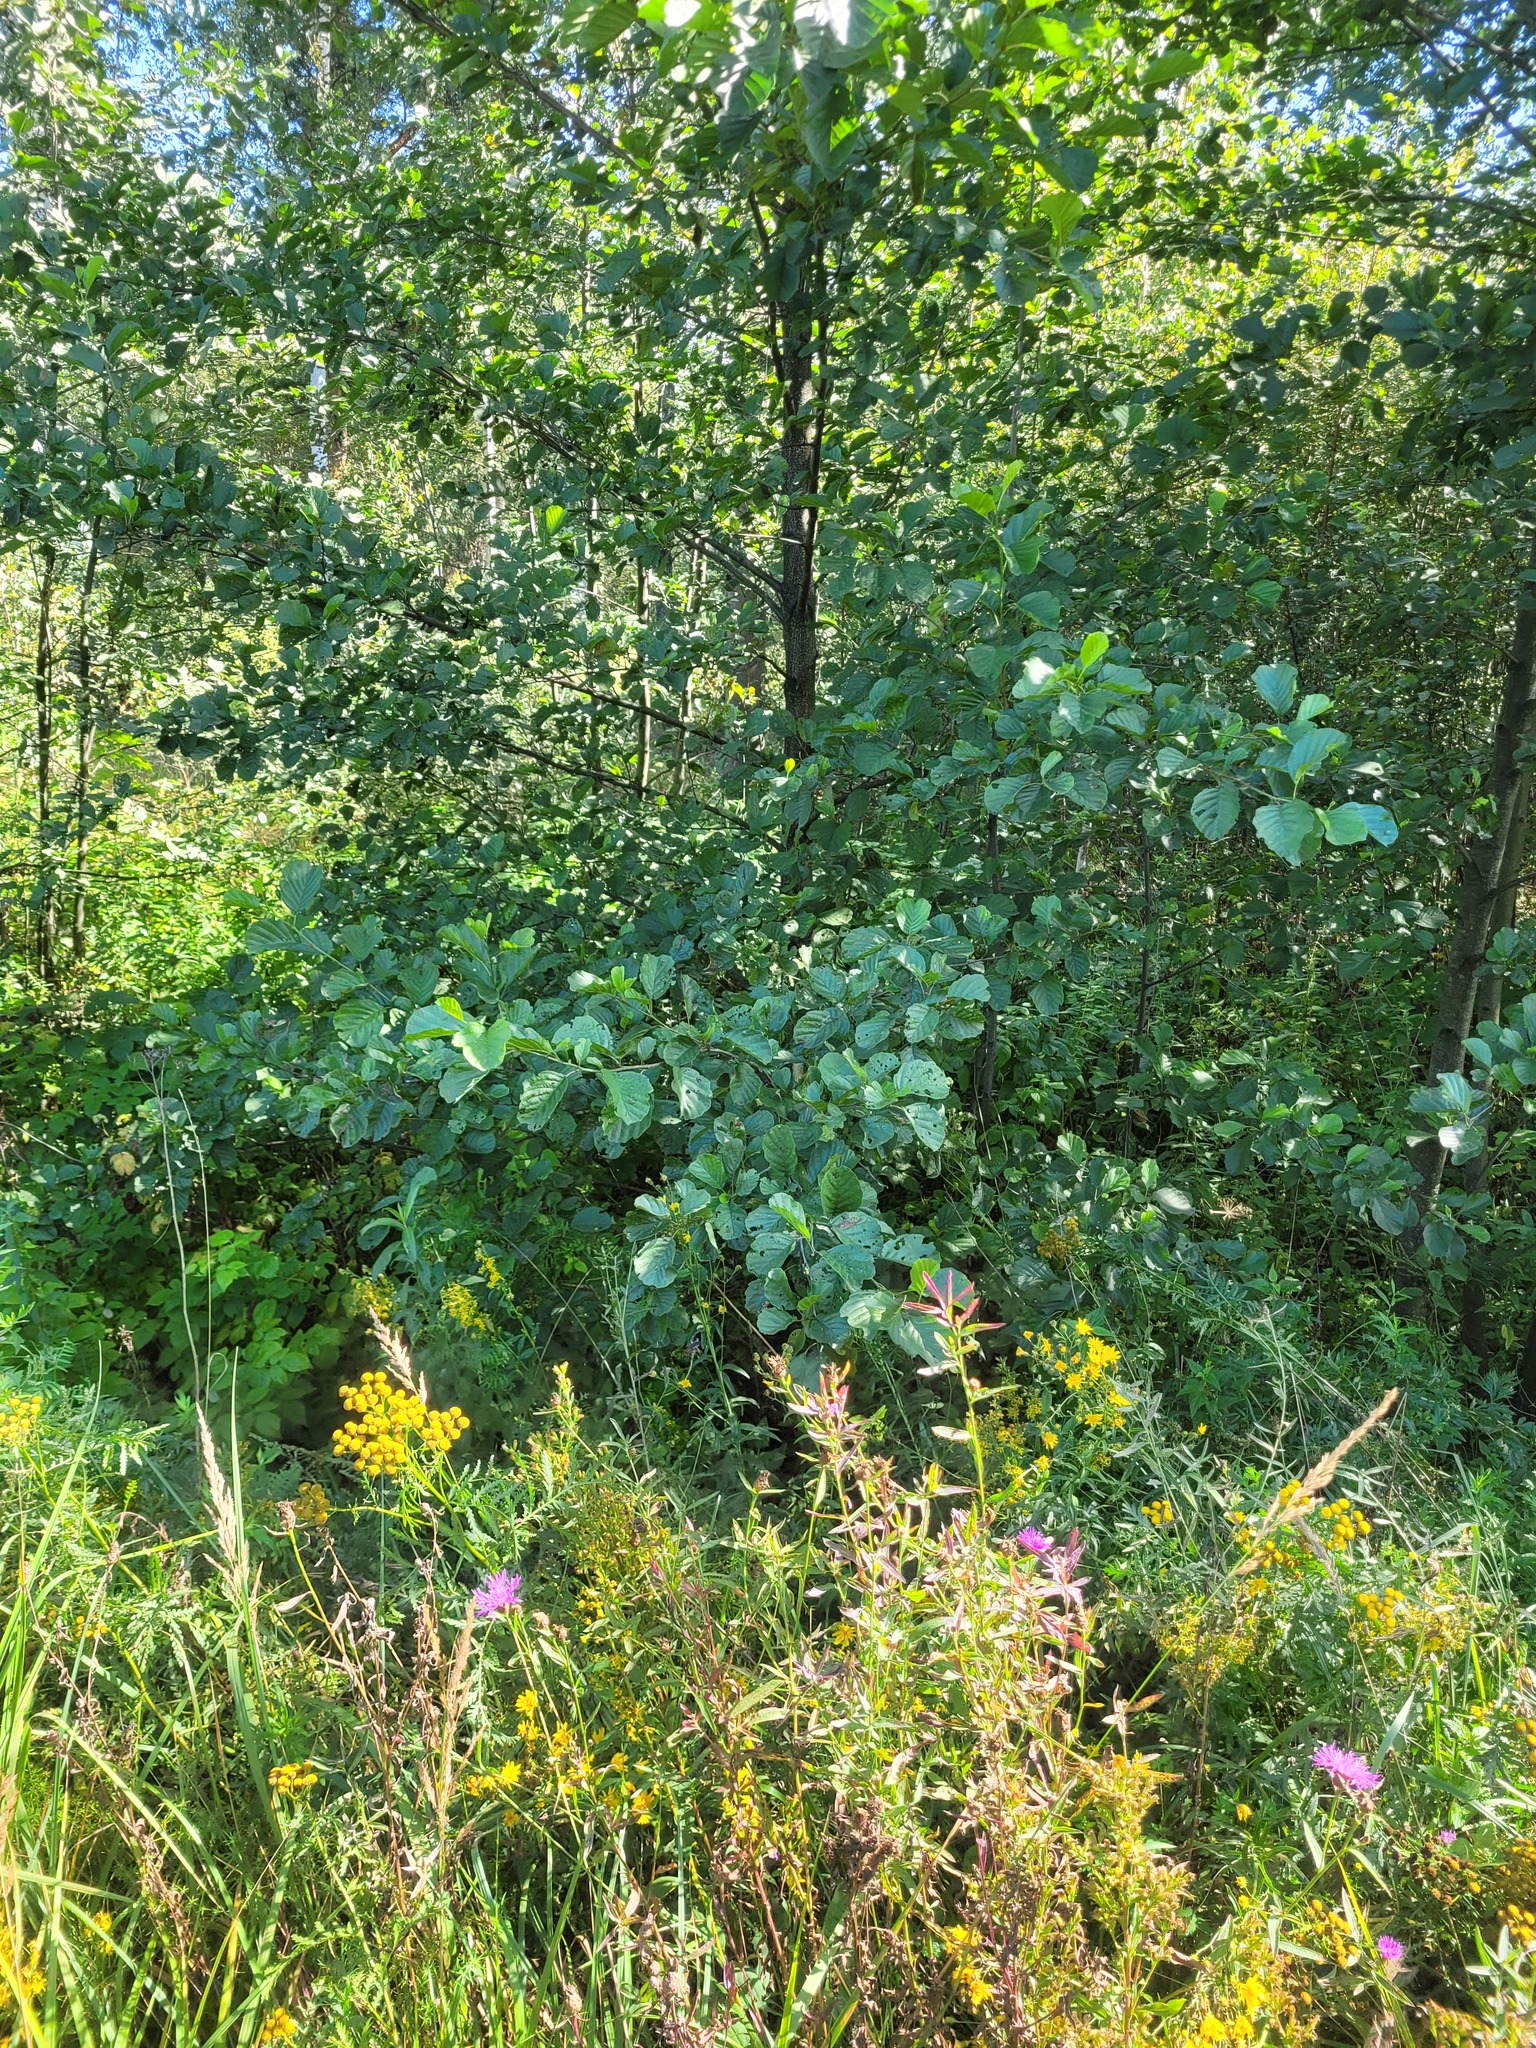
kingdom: Plantae
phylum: Tracheophyta
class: Magnoliopsida
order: Fagales
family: Betulaceae
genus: Alnus
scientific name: Alnus glutinosa
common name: Black alder
